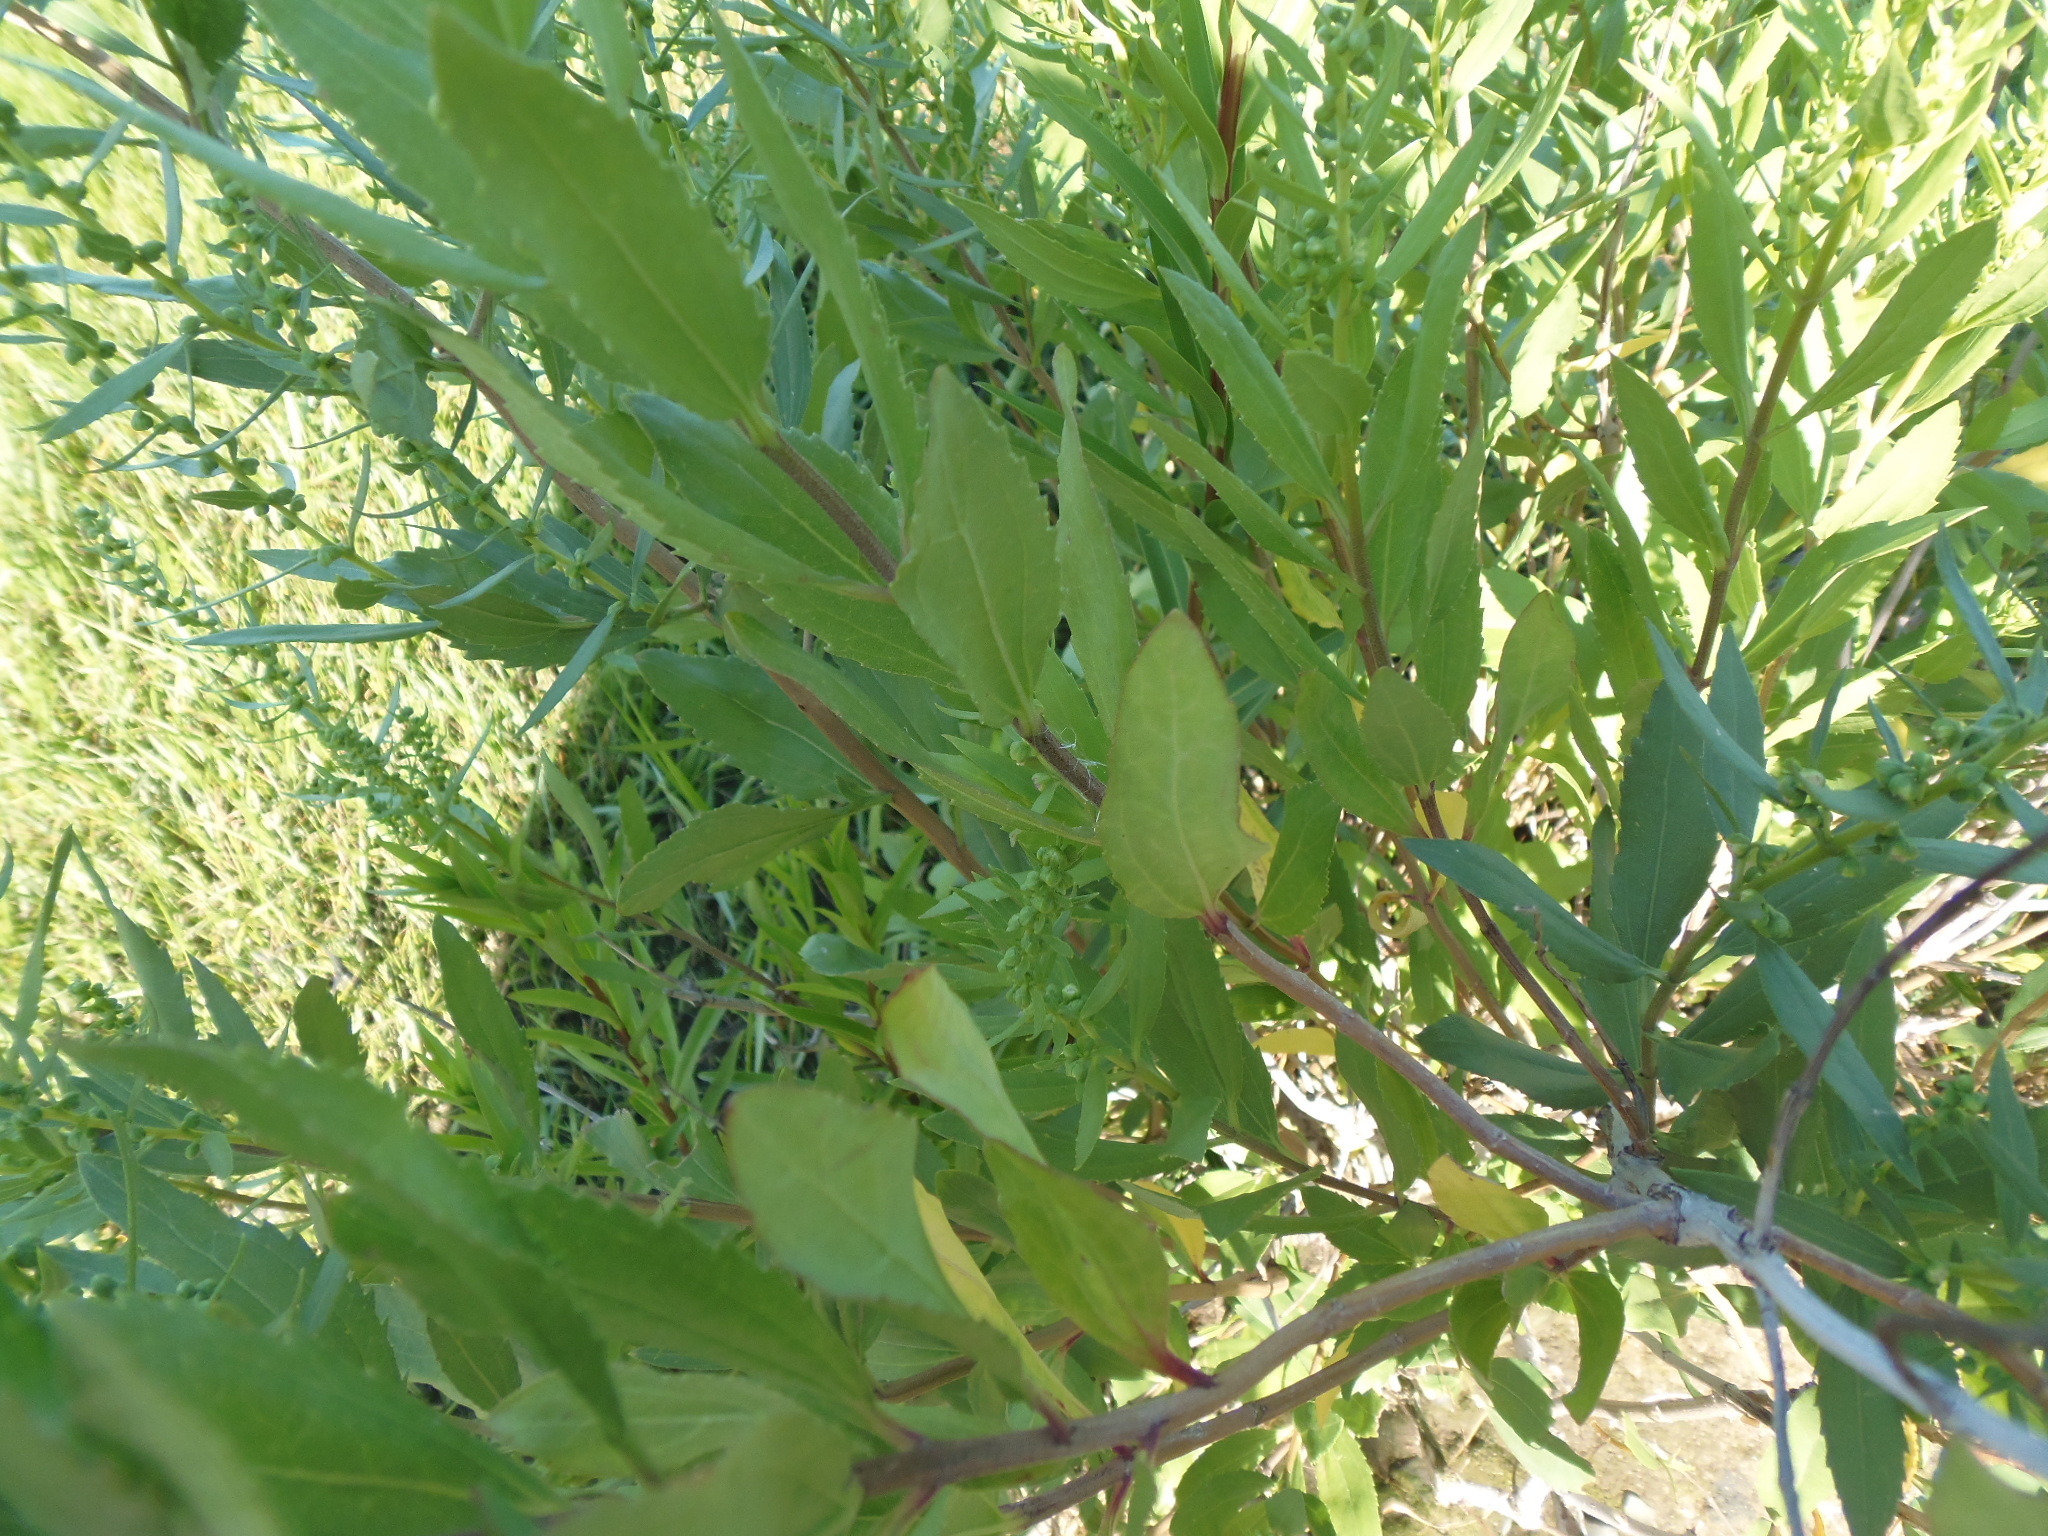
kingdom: Plantae
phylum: Tracheophyta
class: Magnoliopsida
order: Asterales
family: Asteraceae
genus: Iva
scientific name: Iva frutescens
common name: Big-leaved marsh-elder
